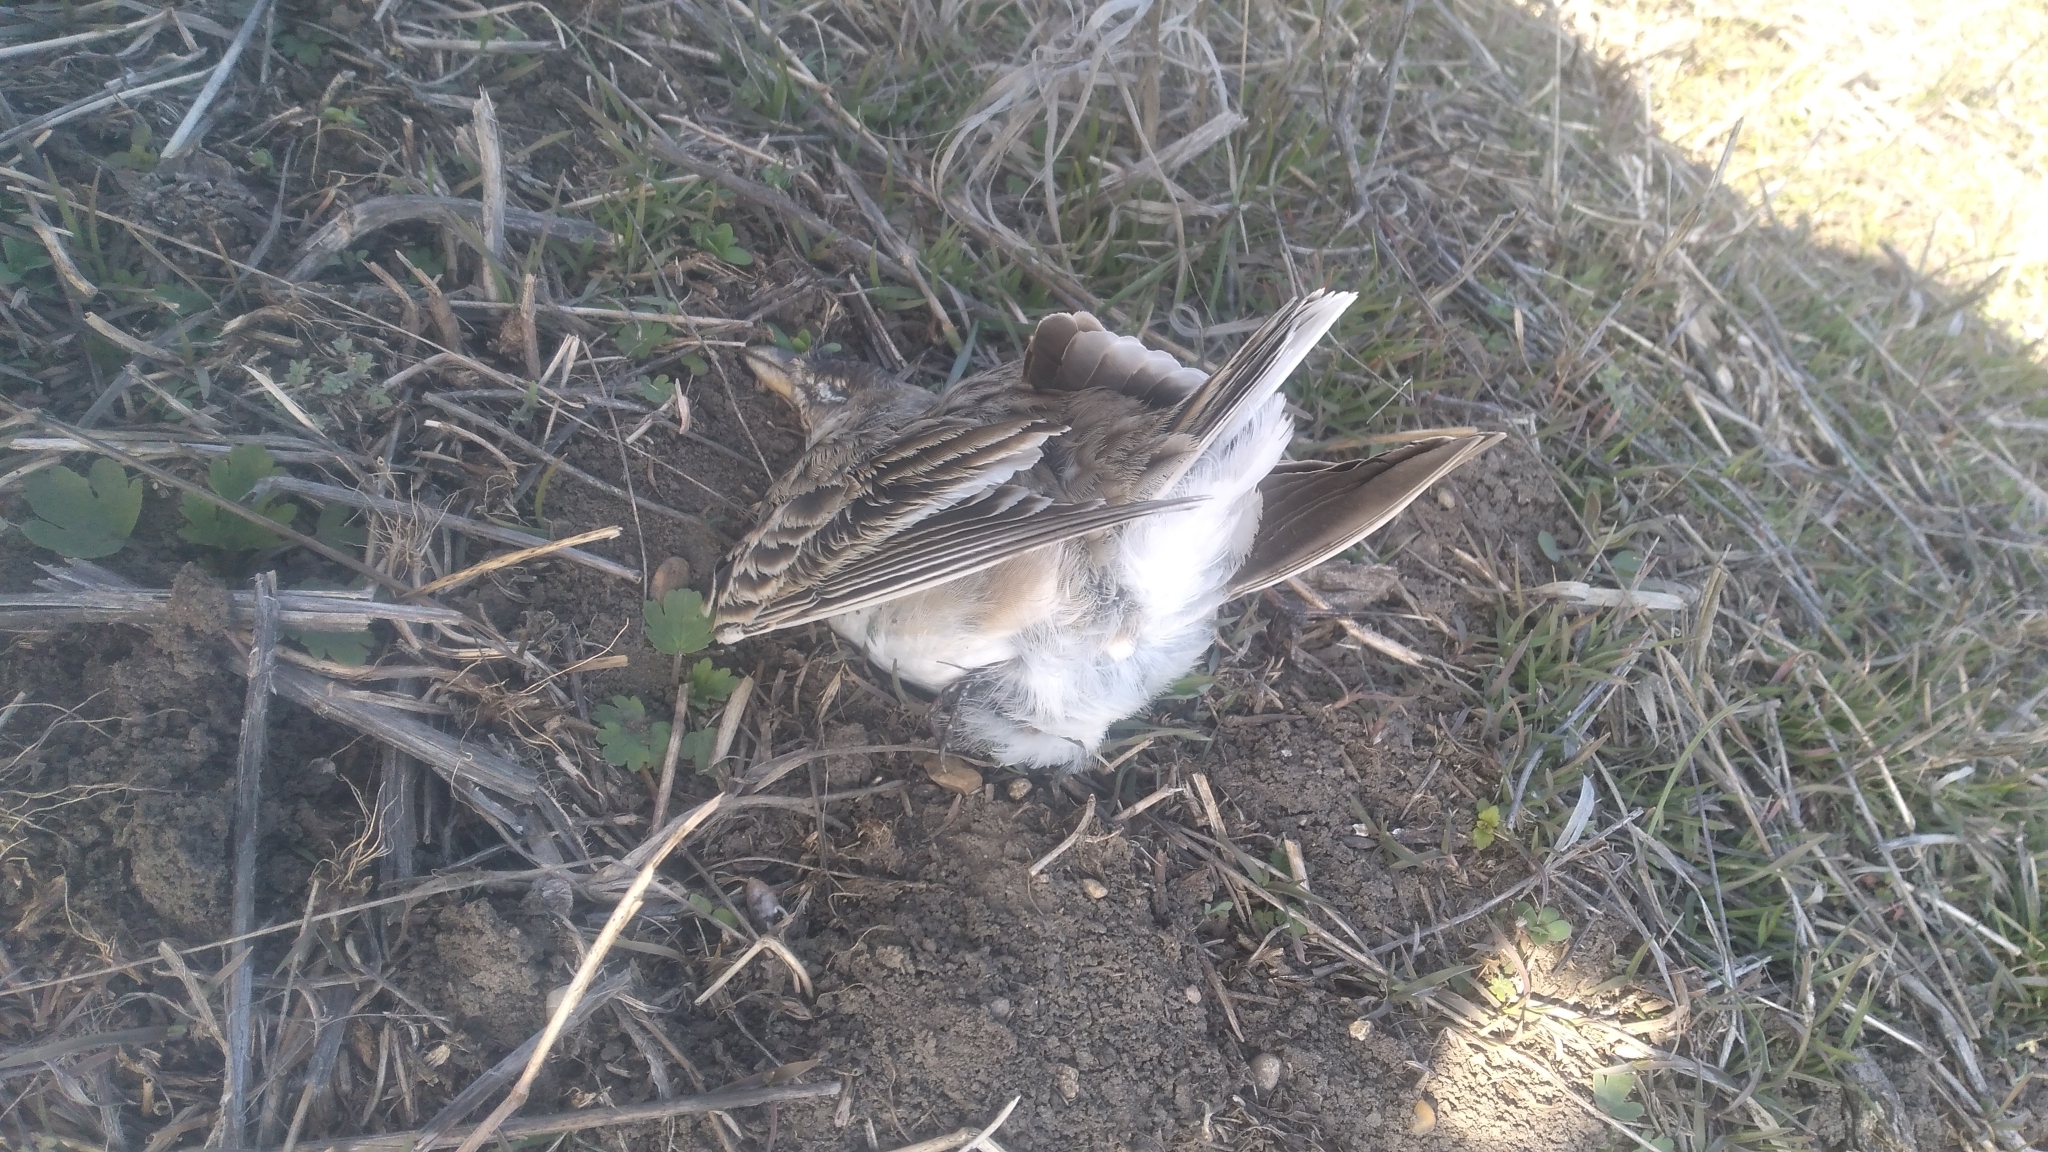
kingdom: Animalia
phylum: Chordata
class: Aves
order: Passeriformes
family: Alaudidae
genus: Melanocorypha
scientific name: Melanocorypha calandra
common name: Calandra lark
